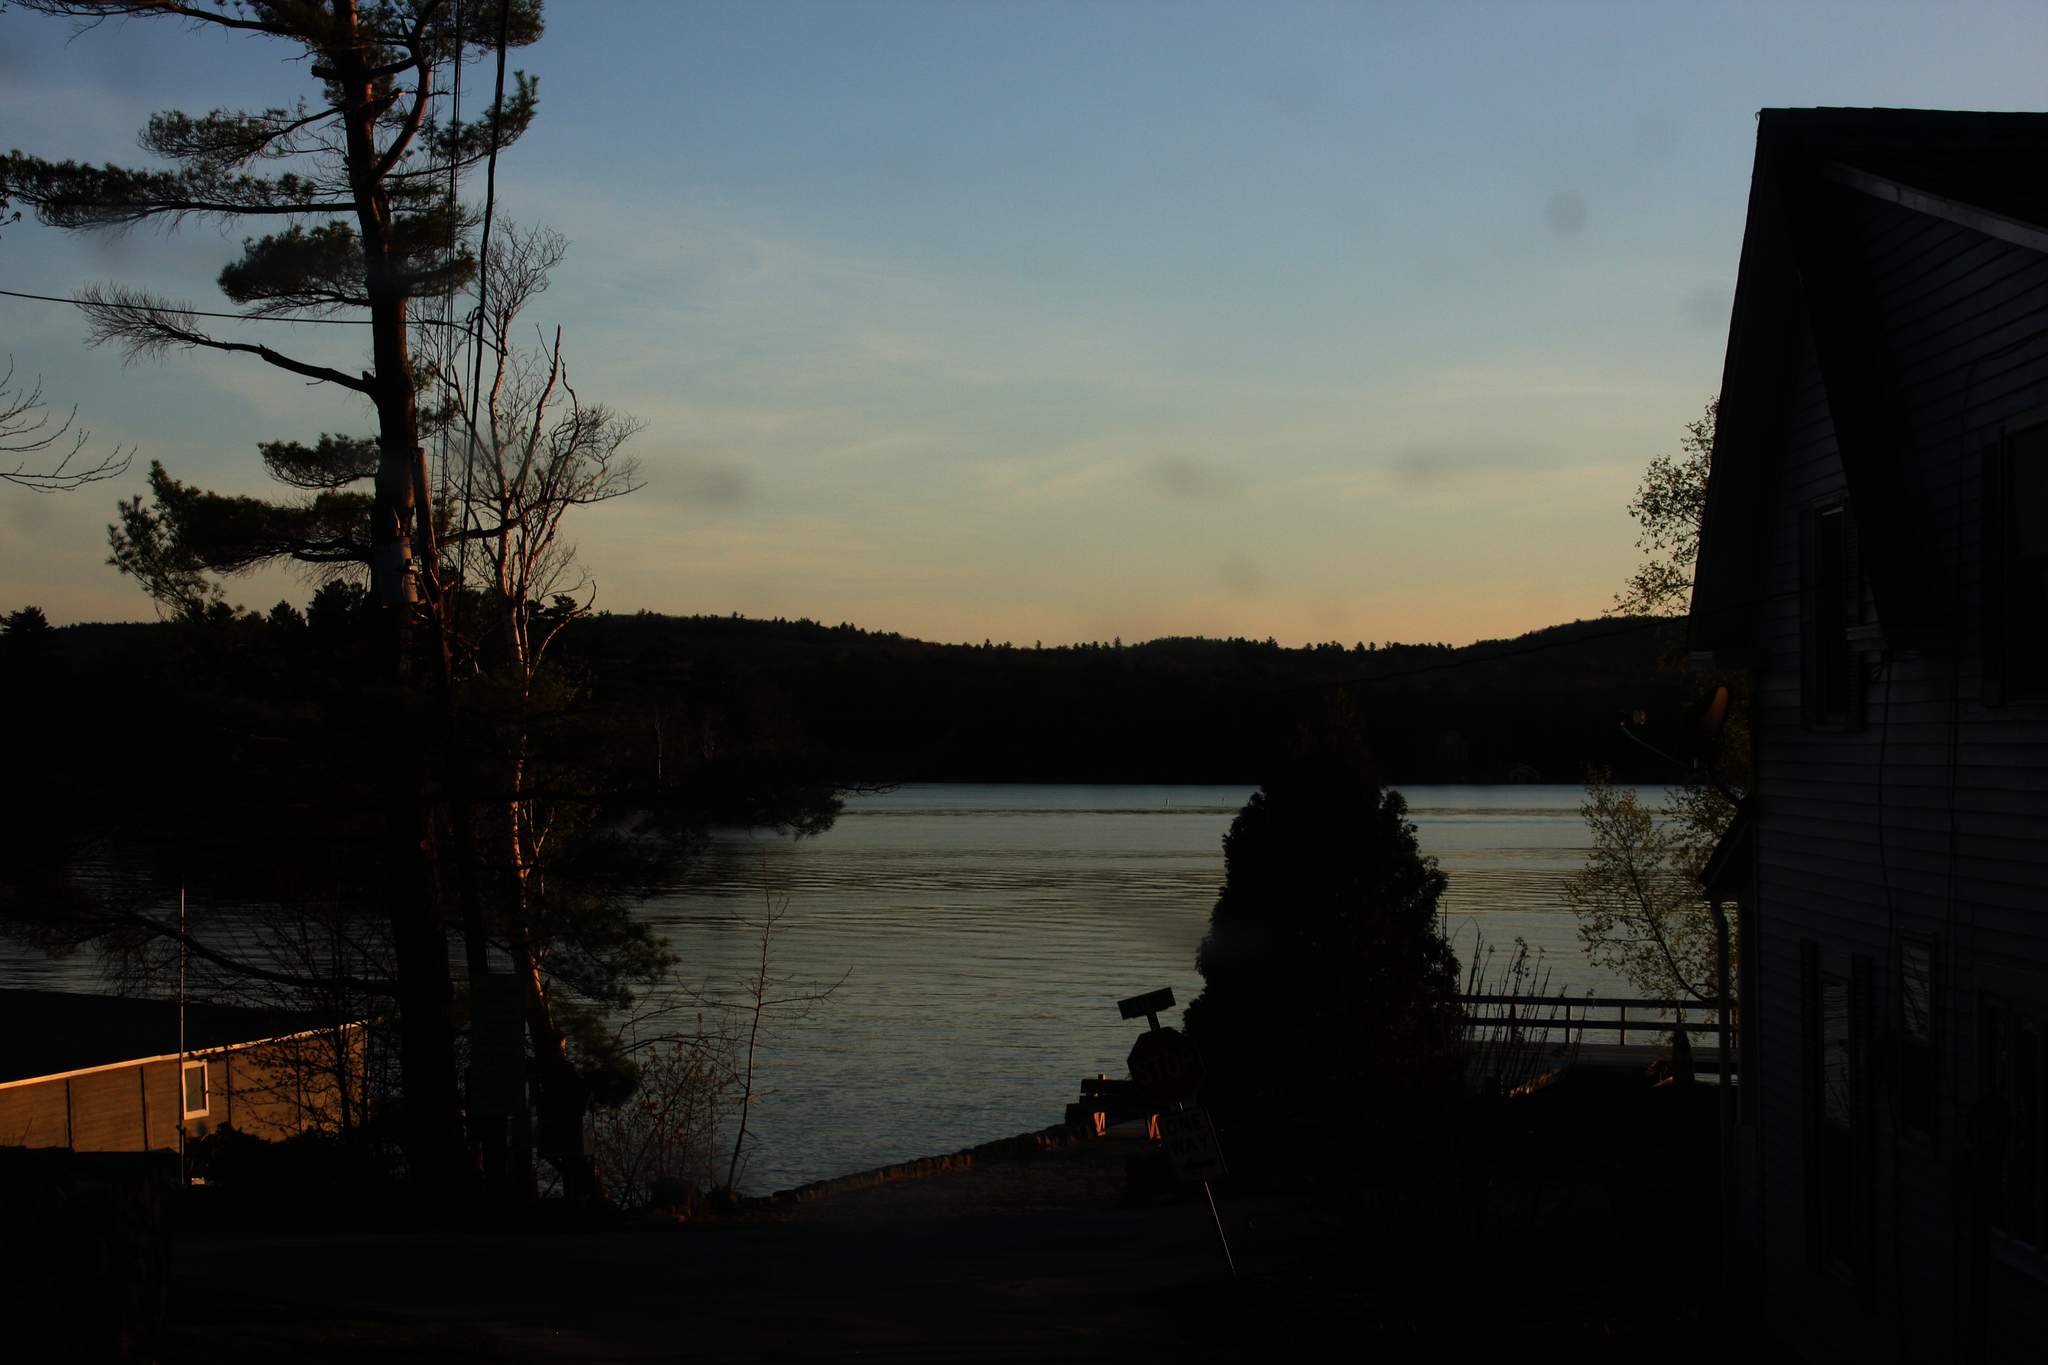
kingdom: Plantae
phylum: Tracheophyta
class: Pinopsida
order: Pinales
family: Pinaceae
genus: Pinus
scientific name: Pinus strobus
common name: Weymouth pine
